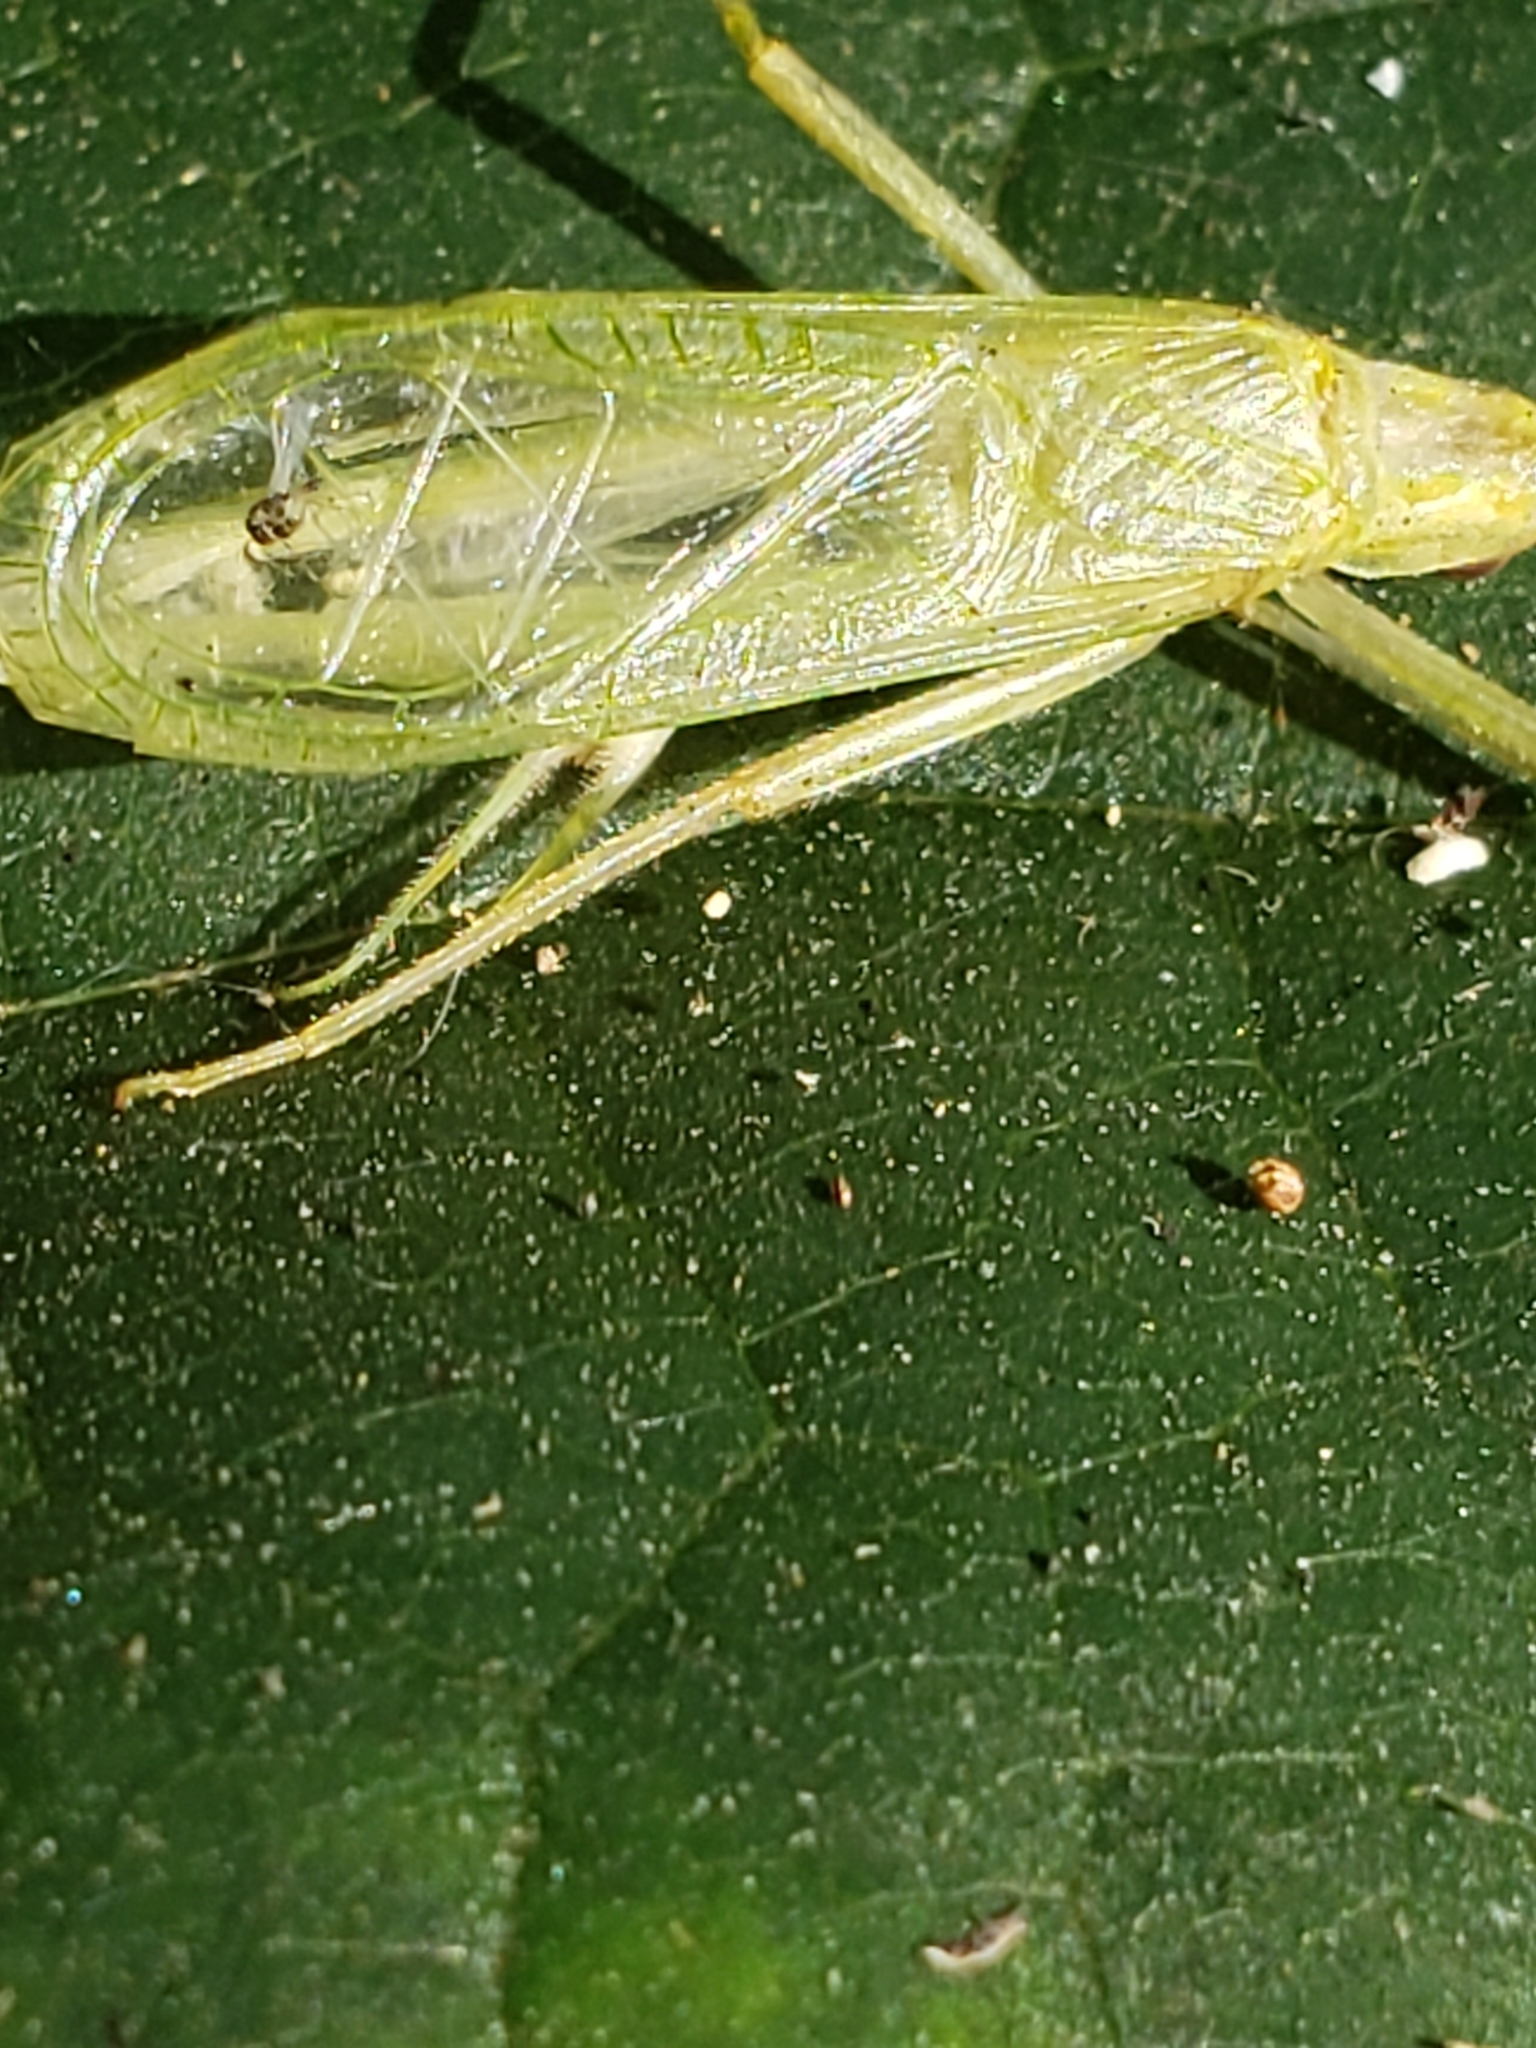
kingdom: Animalia
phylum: Arthropoda
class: Insecta
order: Orthoptera
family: Gryllidae
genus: Oecanthus
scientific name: Oecanthus niveus
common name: Narrow-winged tree cricket
